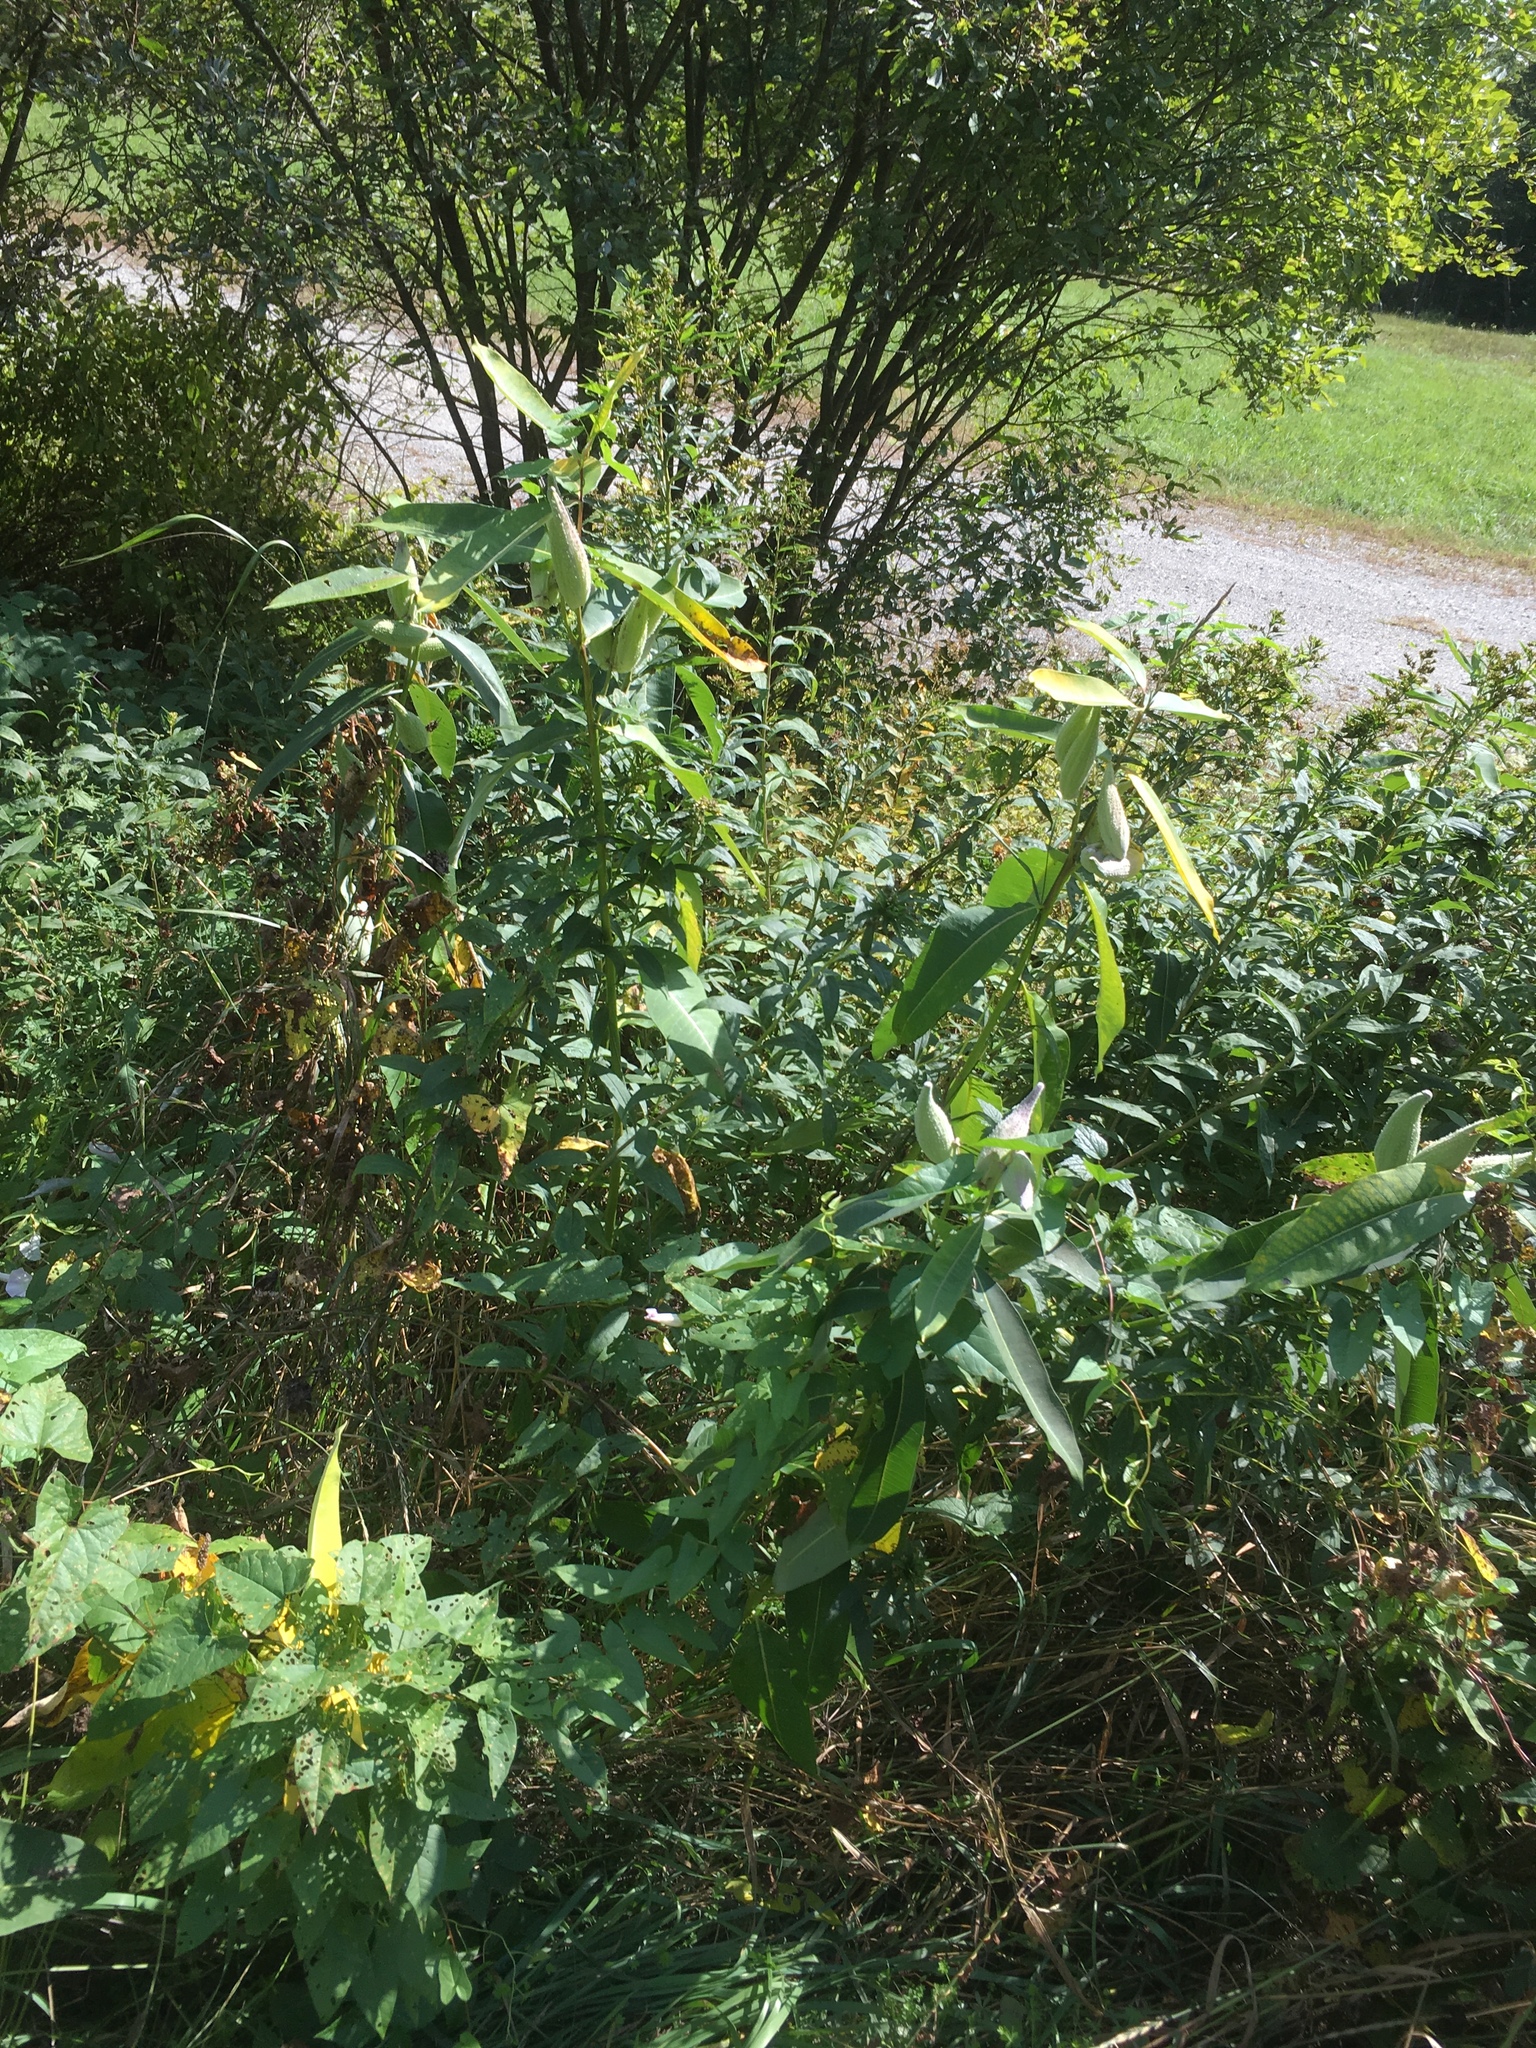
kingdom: Plantae
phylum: Tracheophyta
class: Magnoliopsida
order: Gentianales
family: Apocynaceae
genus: Asclepias
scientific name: Asclepias syriaca
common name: Common milkweed
